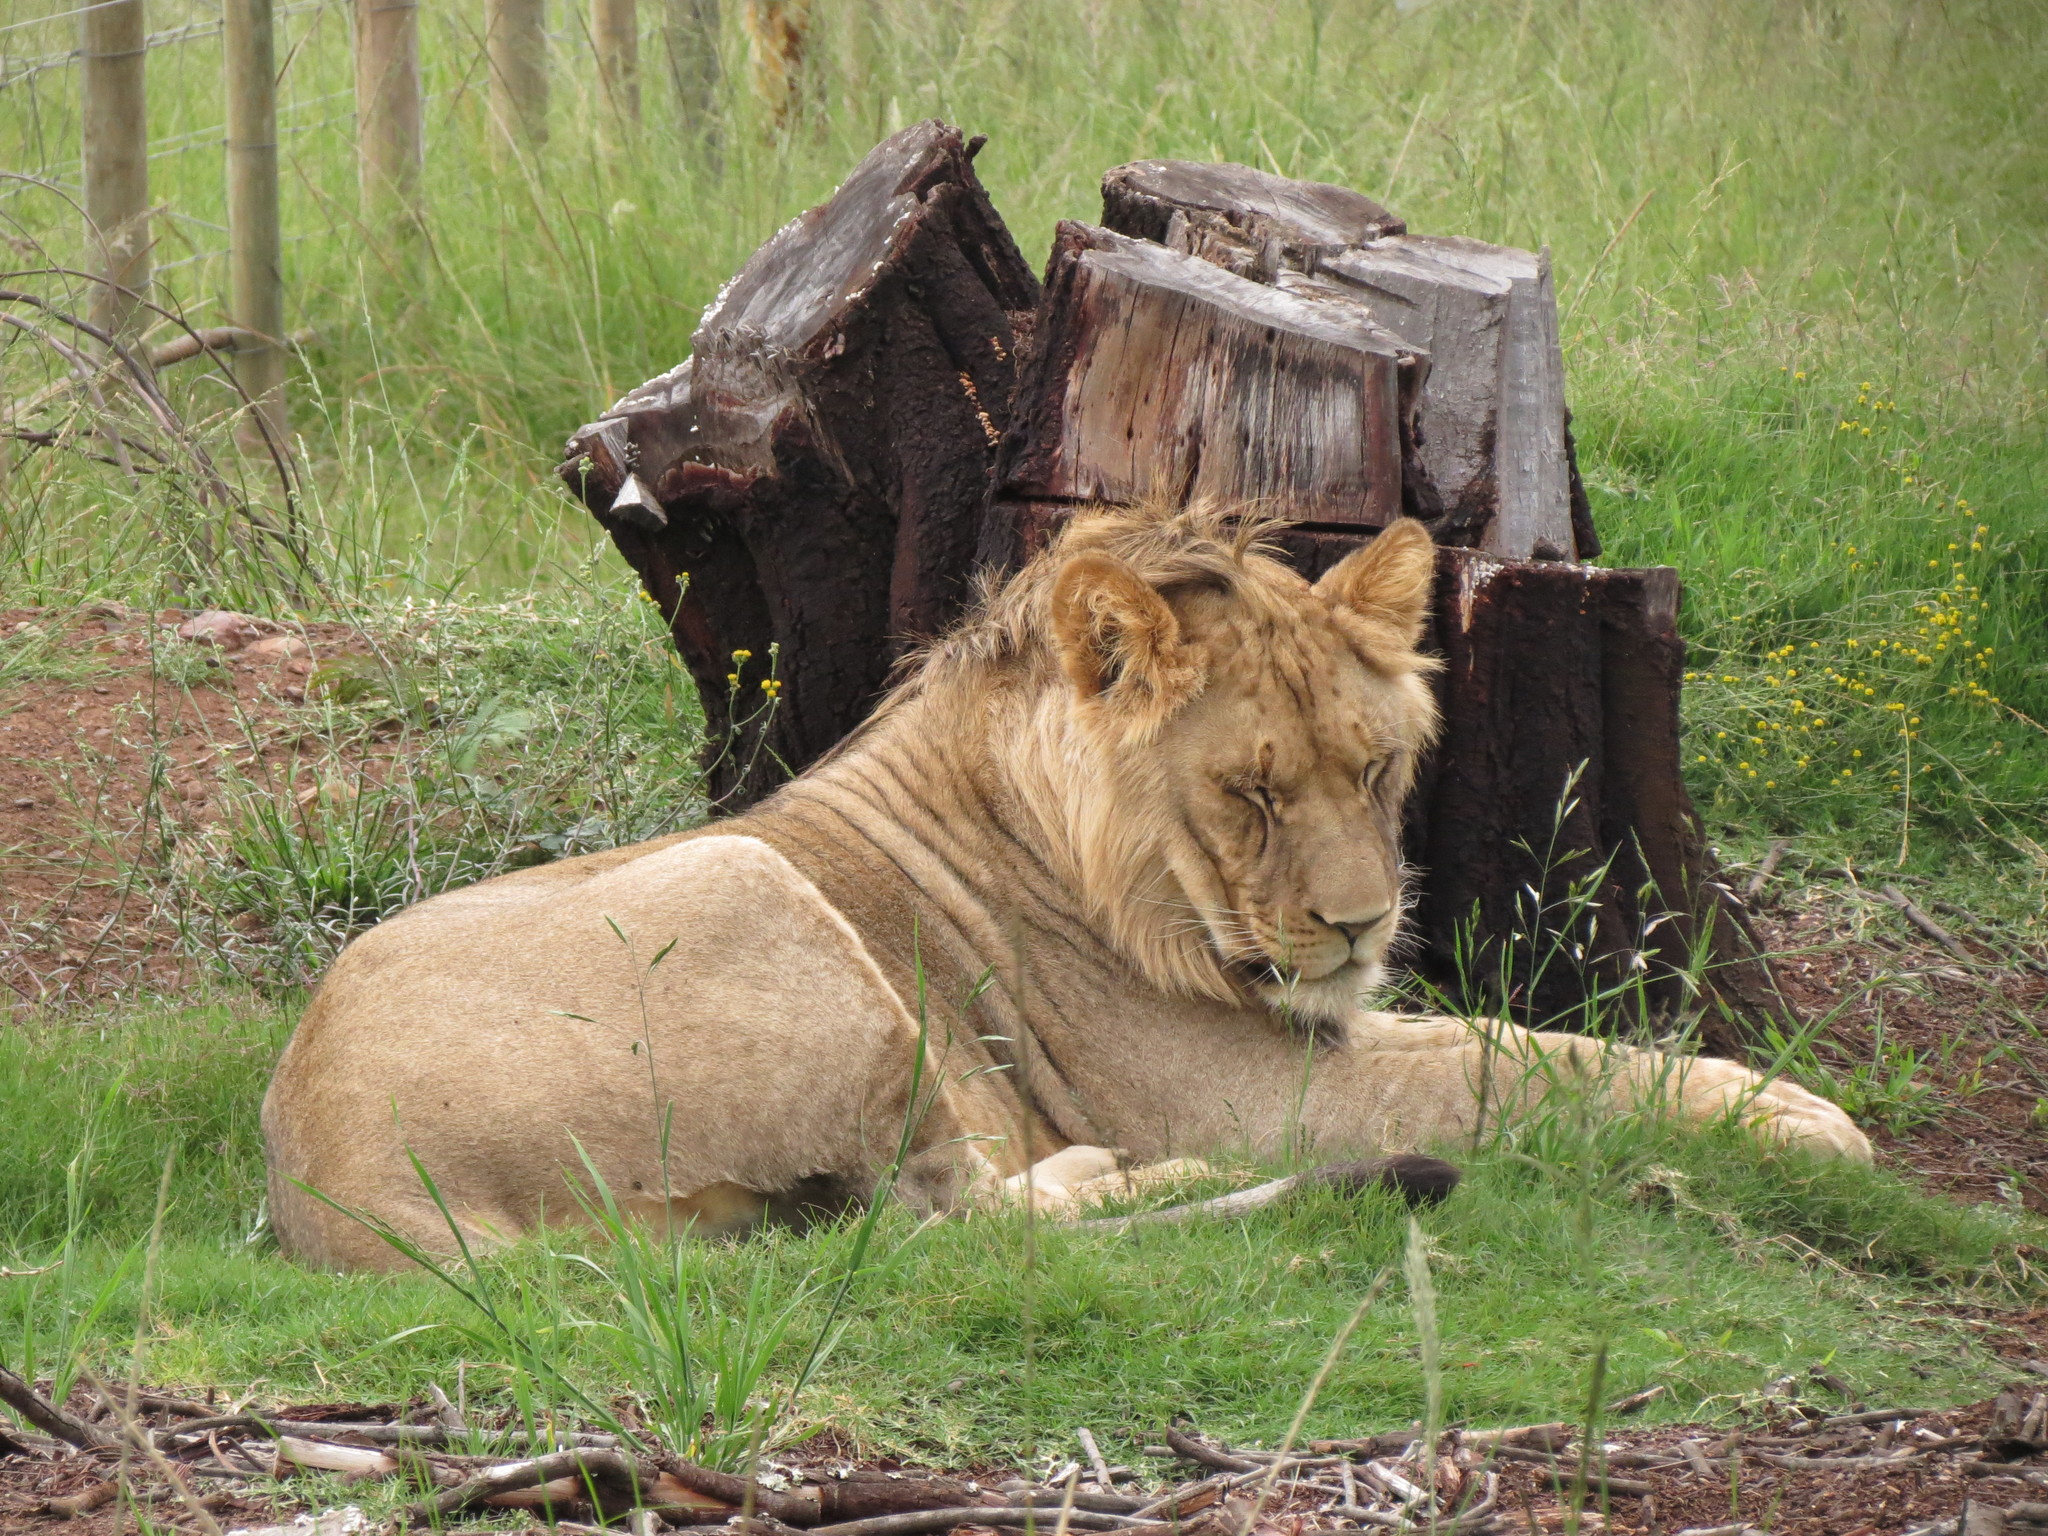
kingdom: Animalia
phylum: Chordata
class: Mammalia
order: Carnivora
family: Felidae
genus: Panthera
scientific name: Panthera leo
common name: Lion
